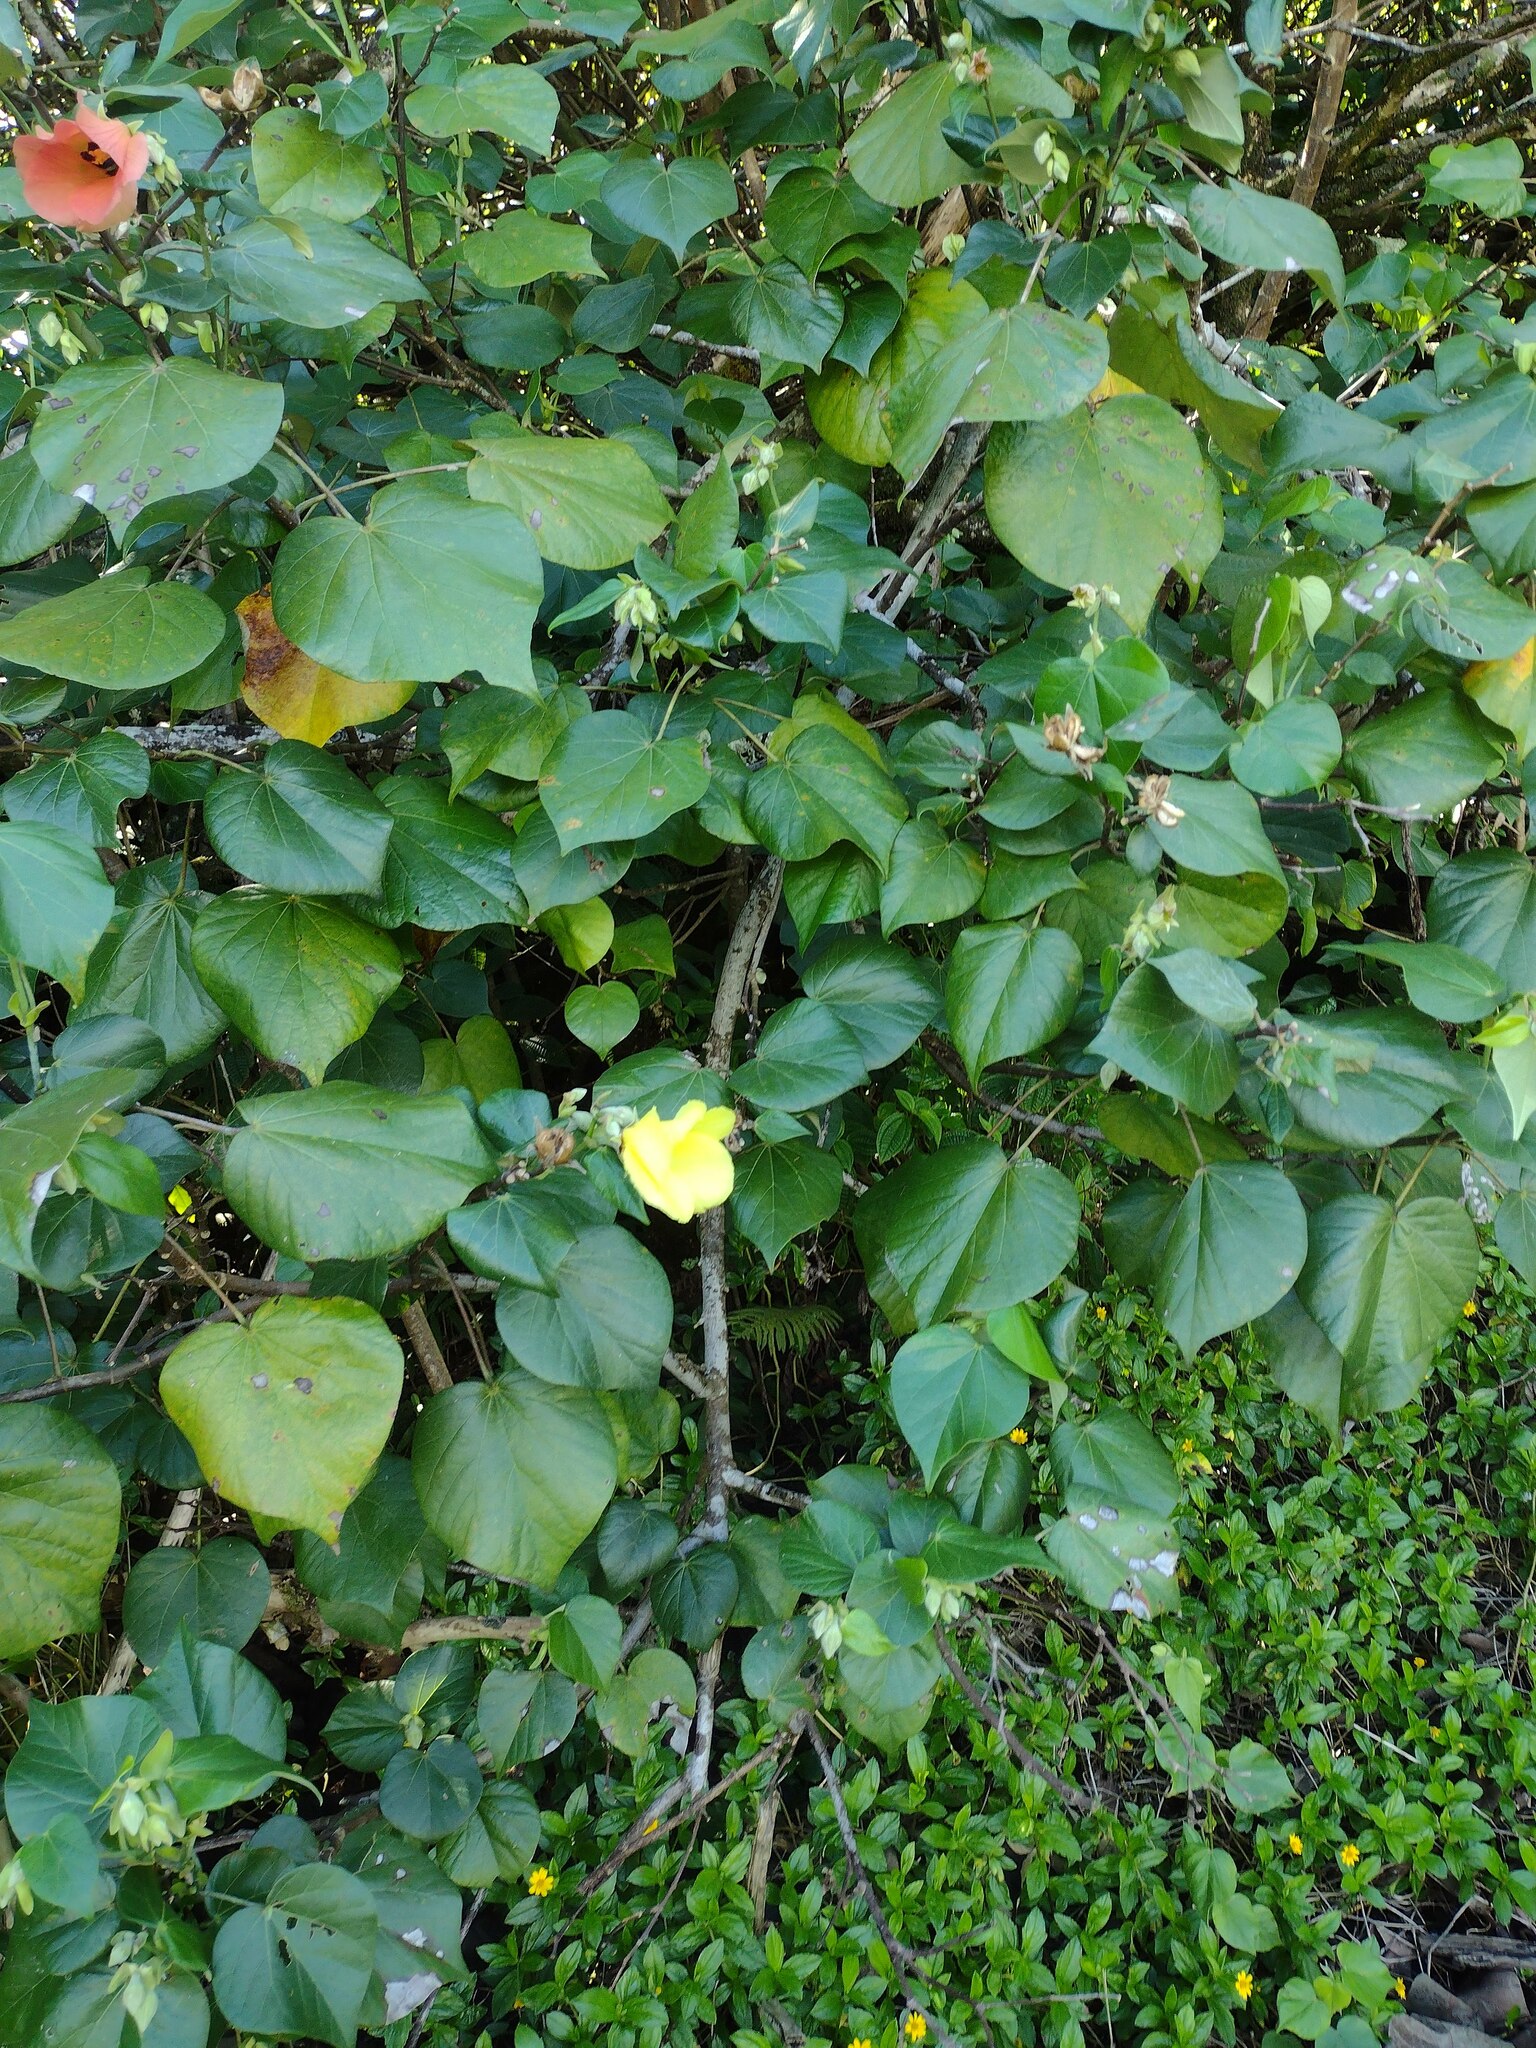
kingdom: Plantae
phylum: Tracheophyta
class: Magnoliopsida
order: Malvales
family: Malvaceae
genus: Talipariti
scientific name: Talipariti tiliaceum
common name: Sea hibiscus
